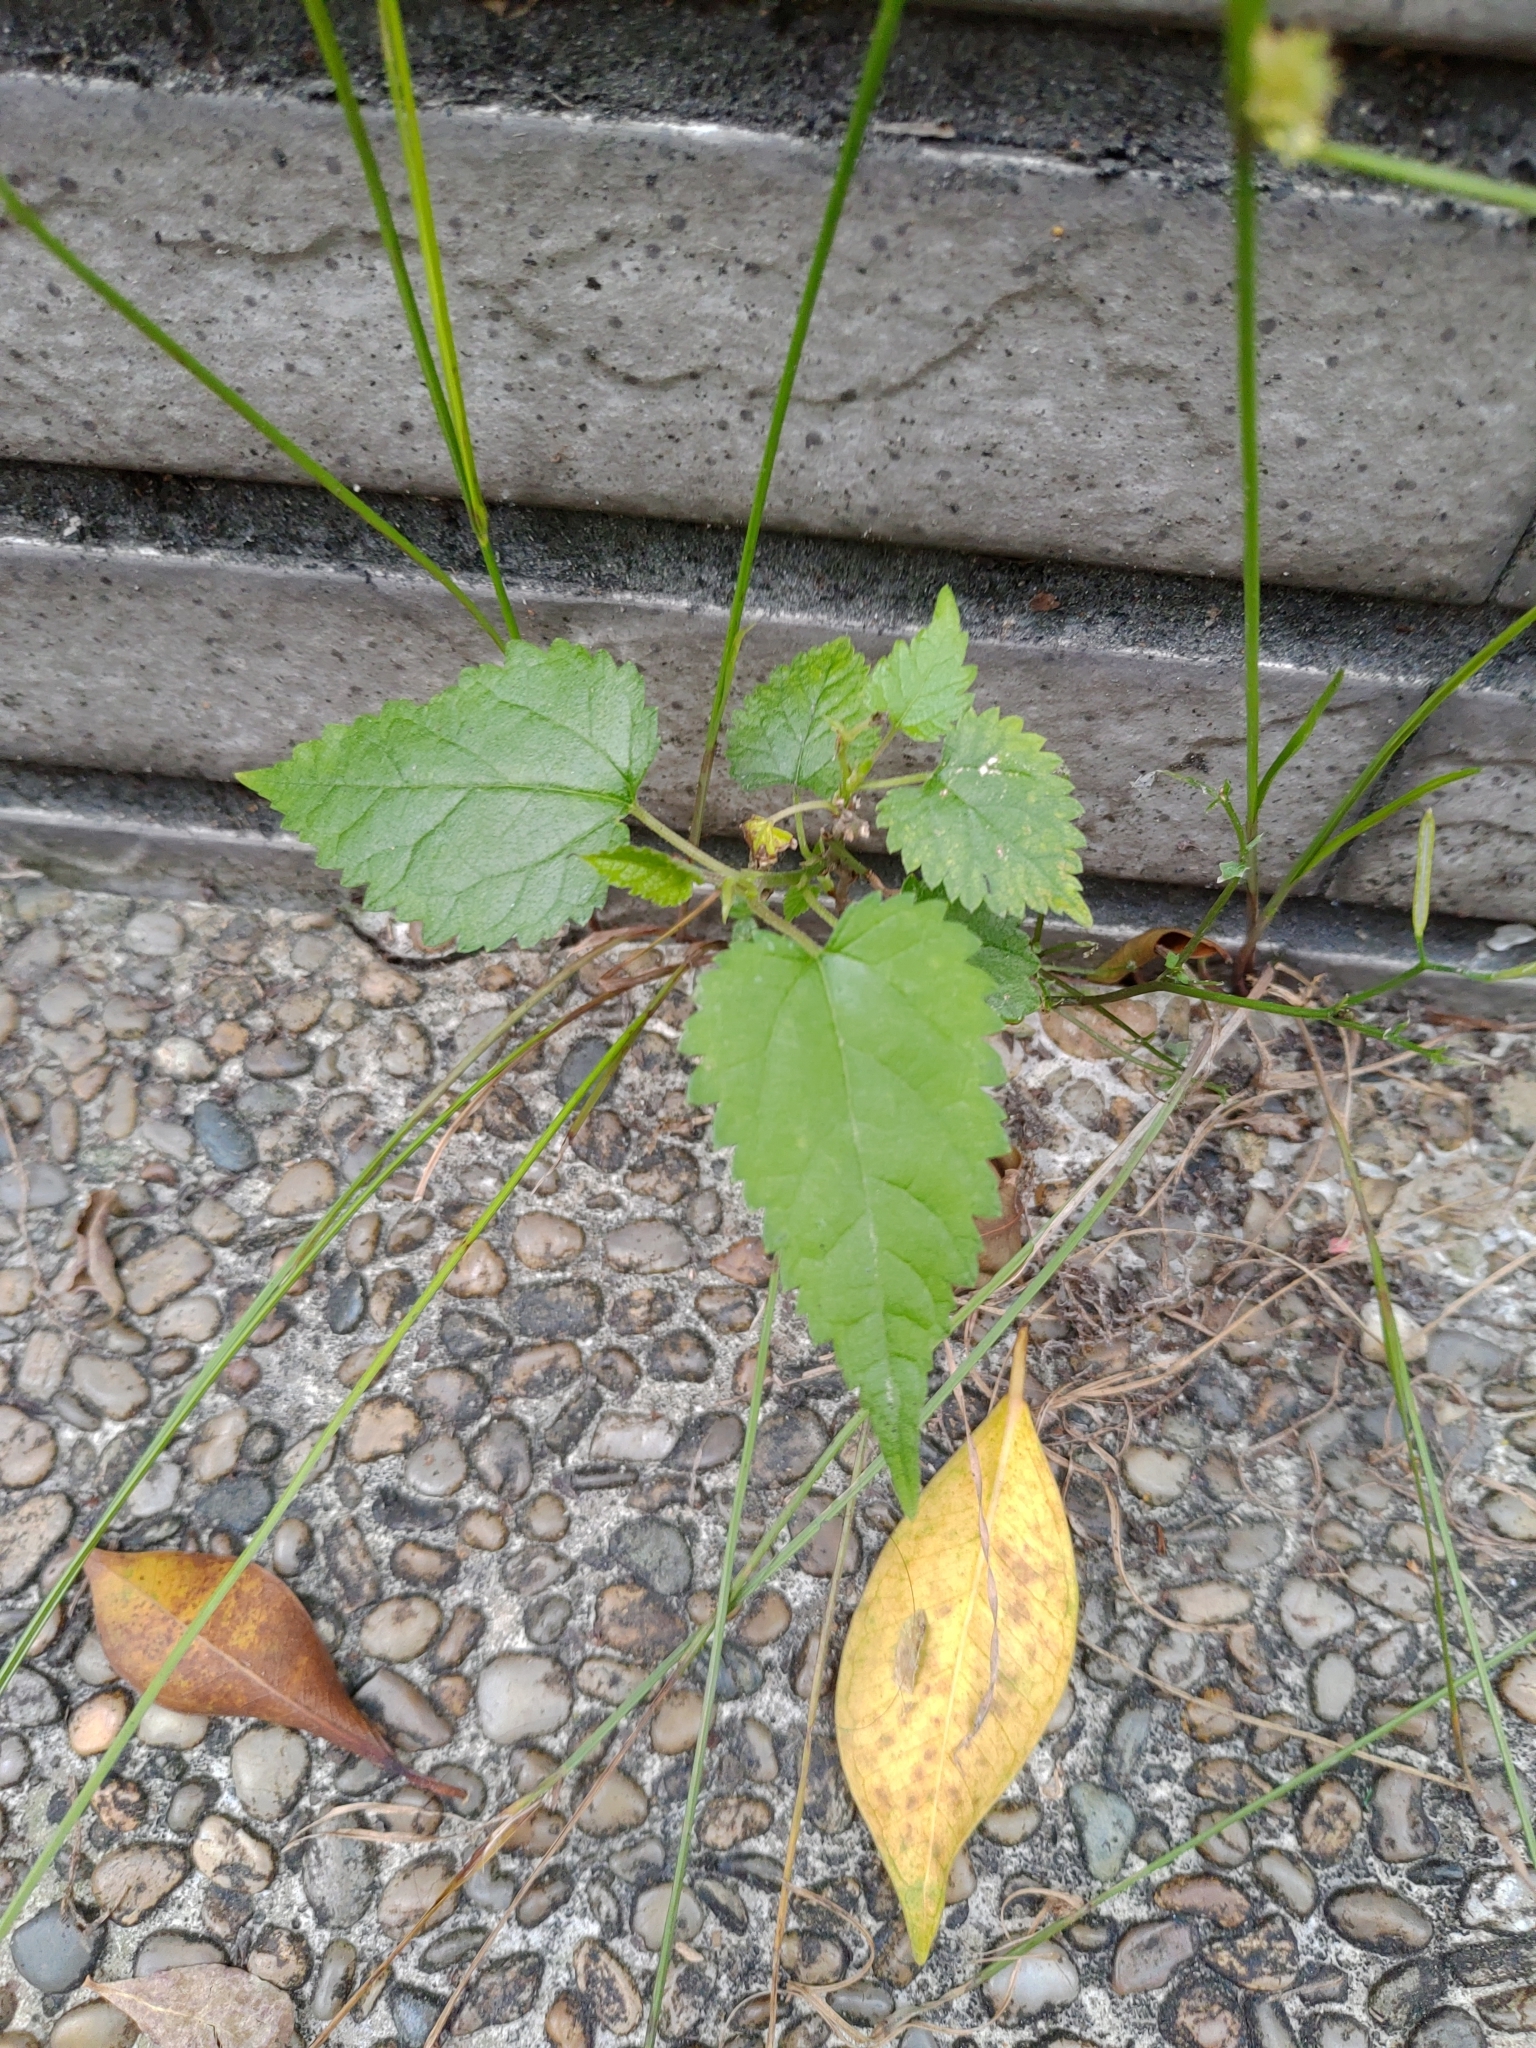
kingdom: Plantae
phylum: Tracheophyta
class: Magnoliopsida
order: Rosales
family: Moraceae
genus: Morus
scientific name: Morus indica
